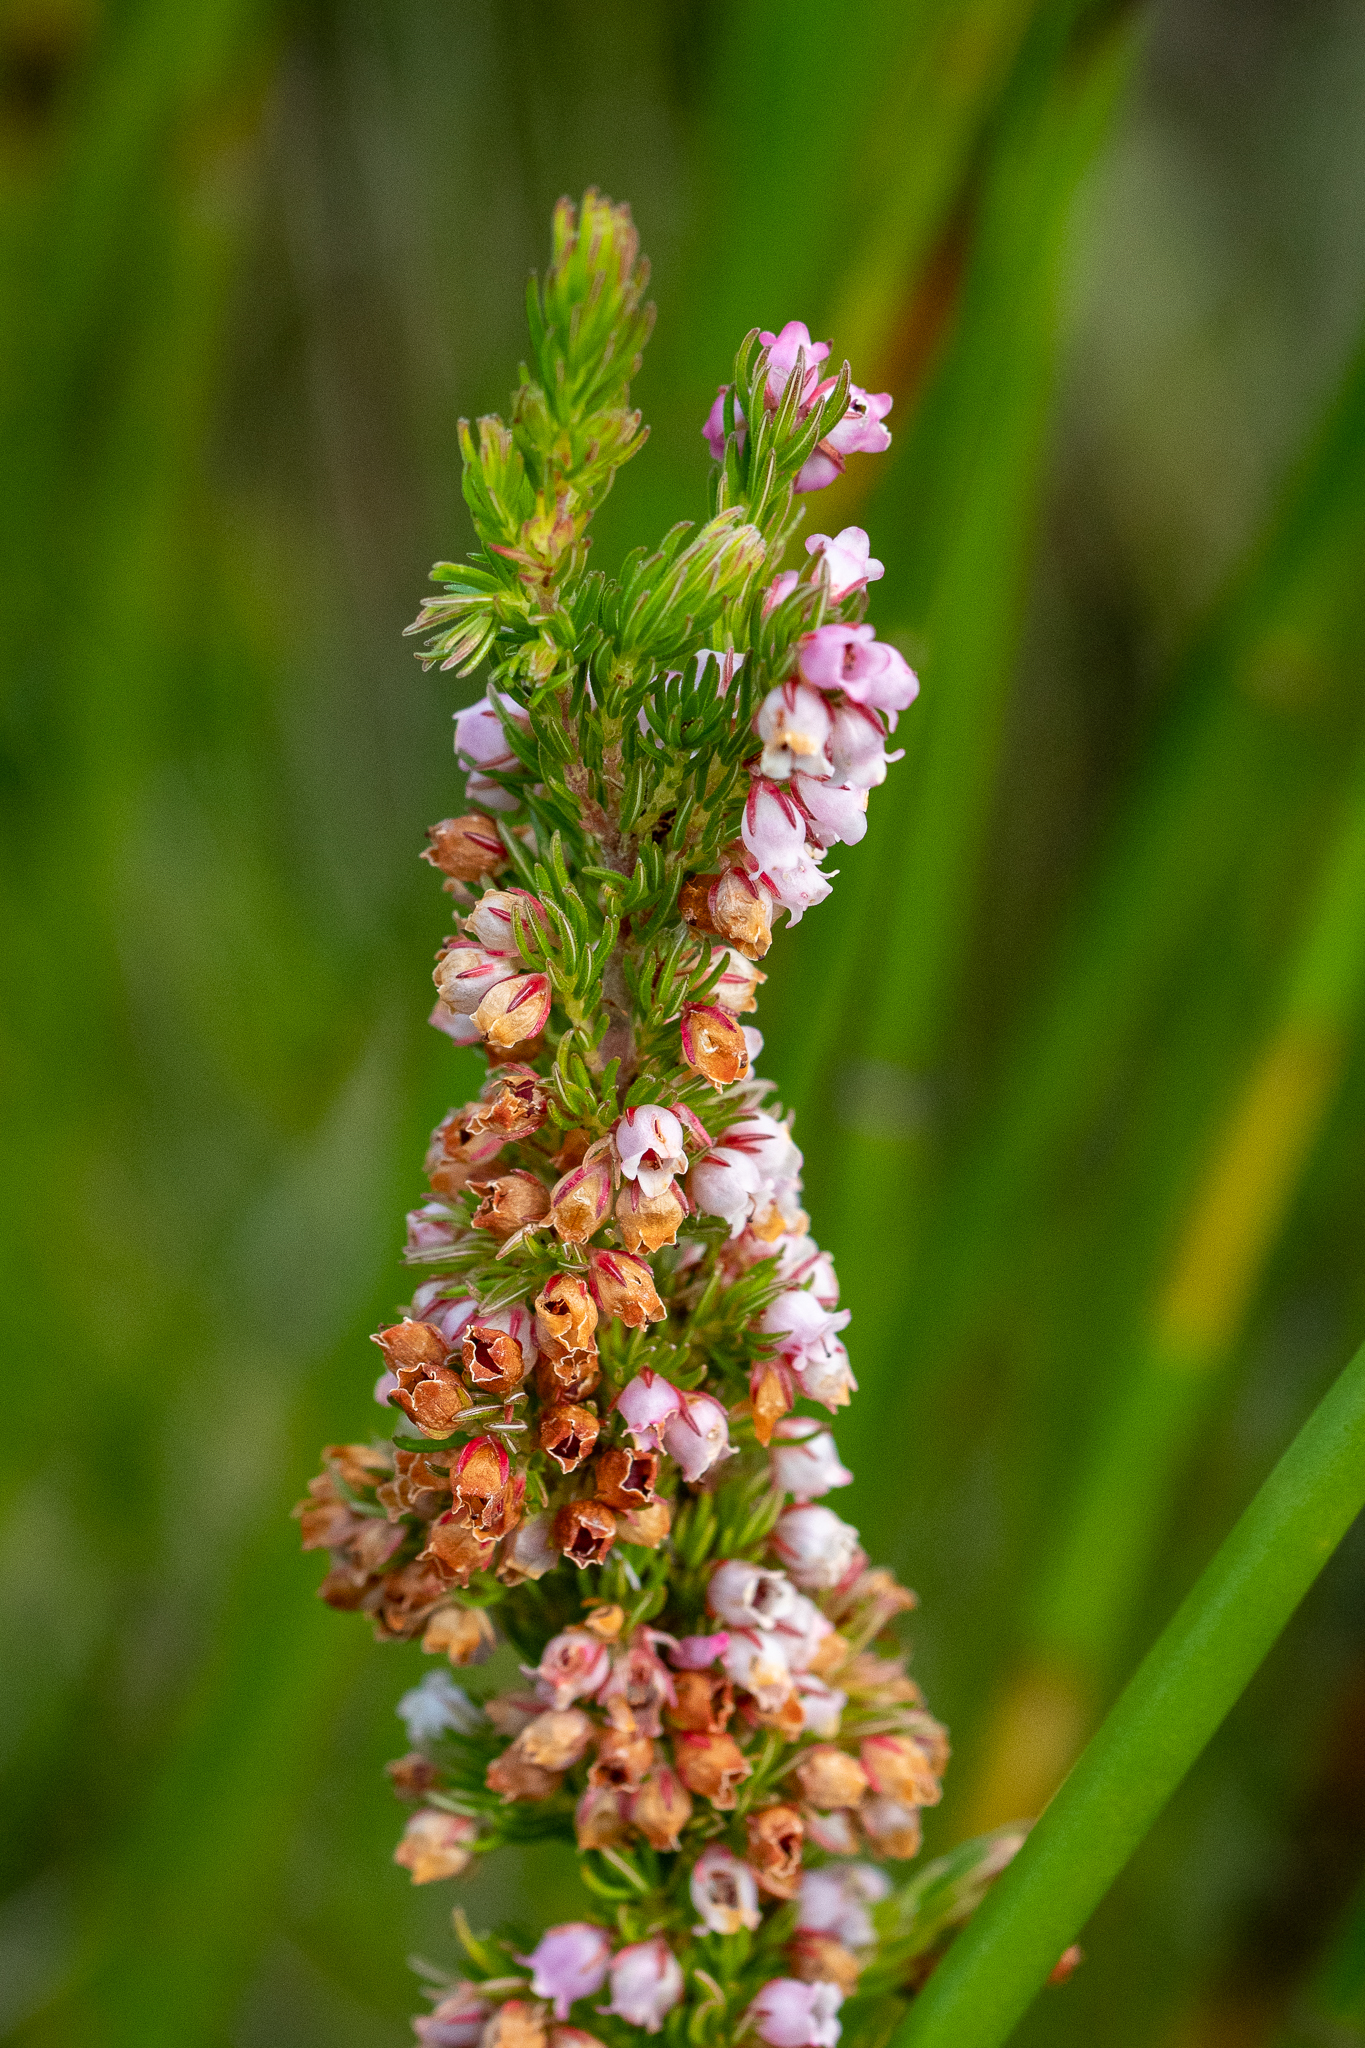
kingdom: Plantae
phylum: Tracheophyta
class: Magnoliopsida
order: Ericales
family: Ericaceae
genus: Erica
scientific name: Erica tenella
